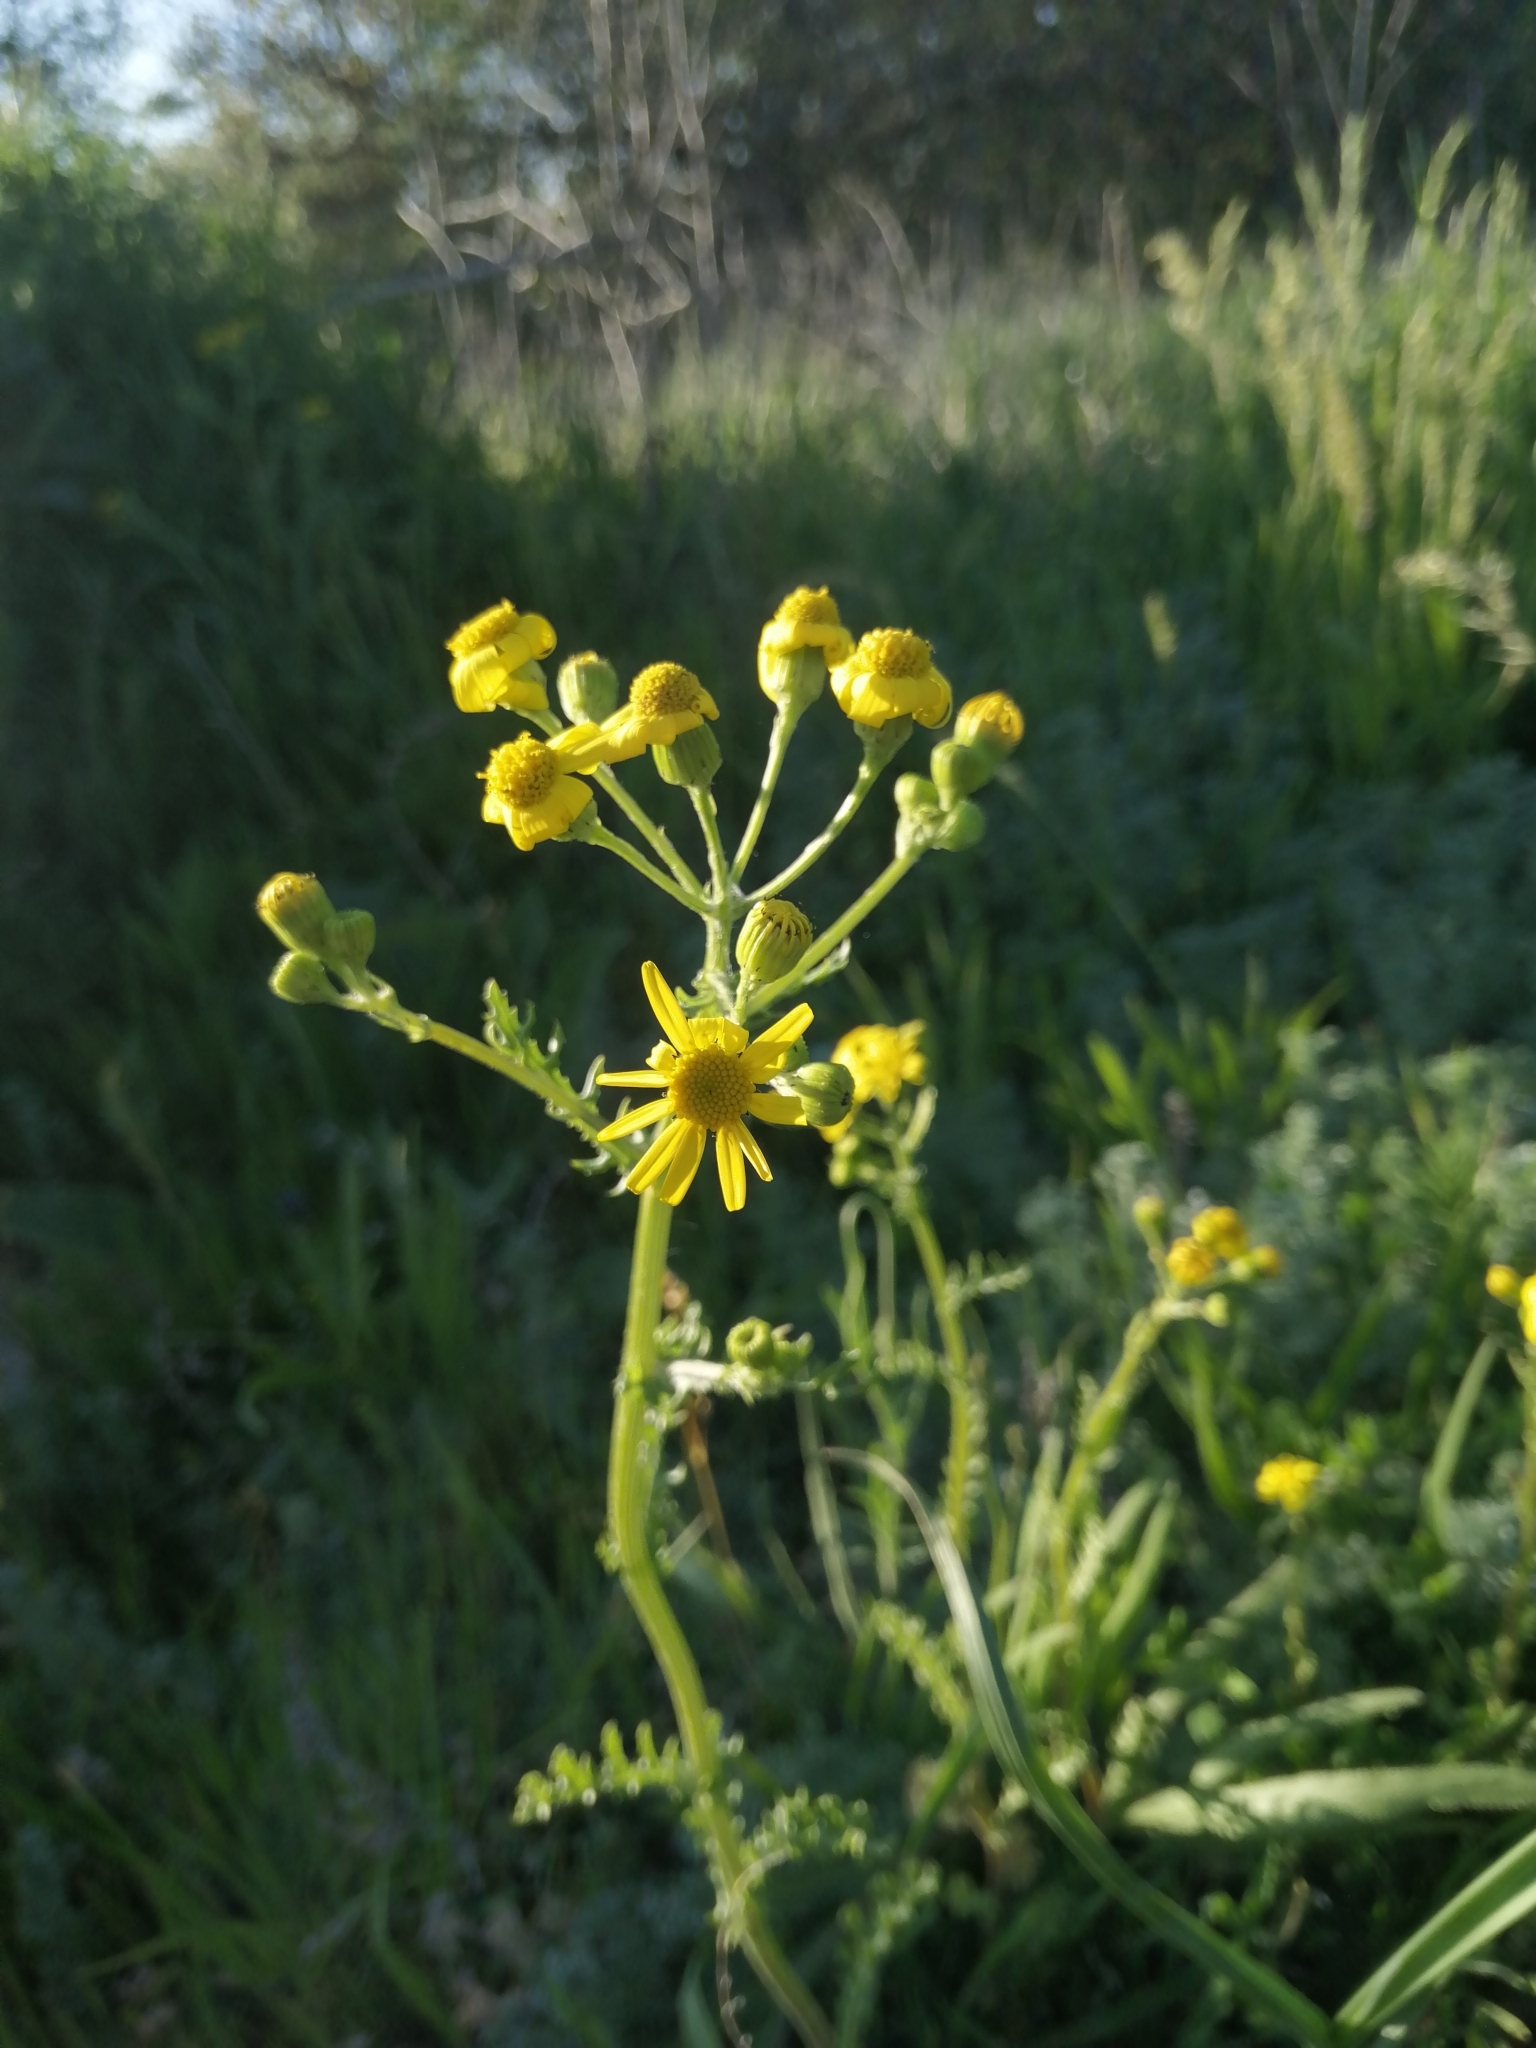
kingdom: Plantae
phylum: Tracheophyta
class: Magnoliopsida
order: Asterales
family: Asteraceae
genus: Senecio
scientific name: Senecio vernalis
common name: Eastern groundsel
